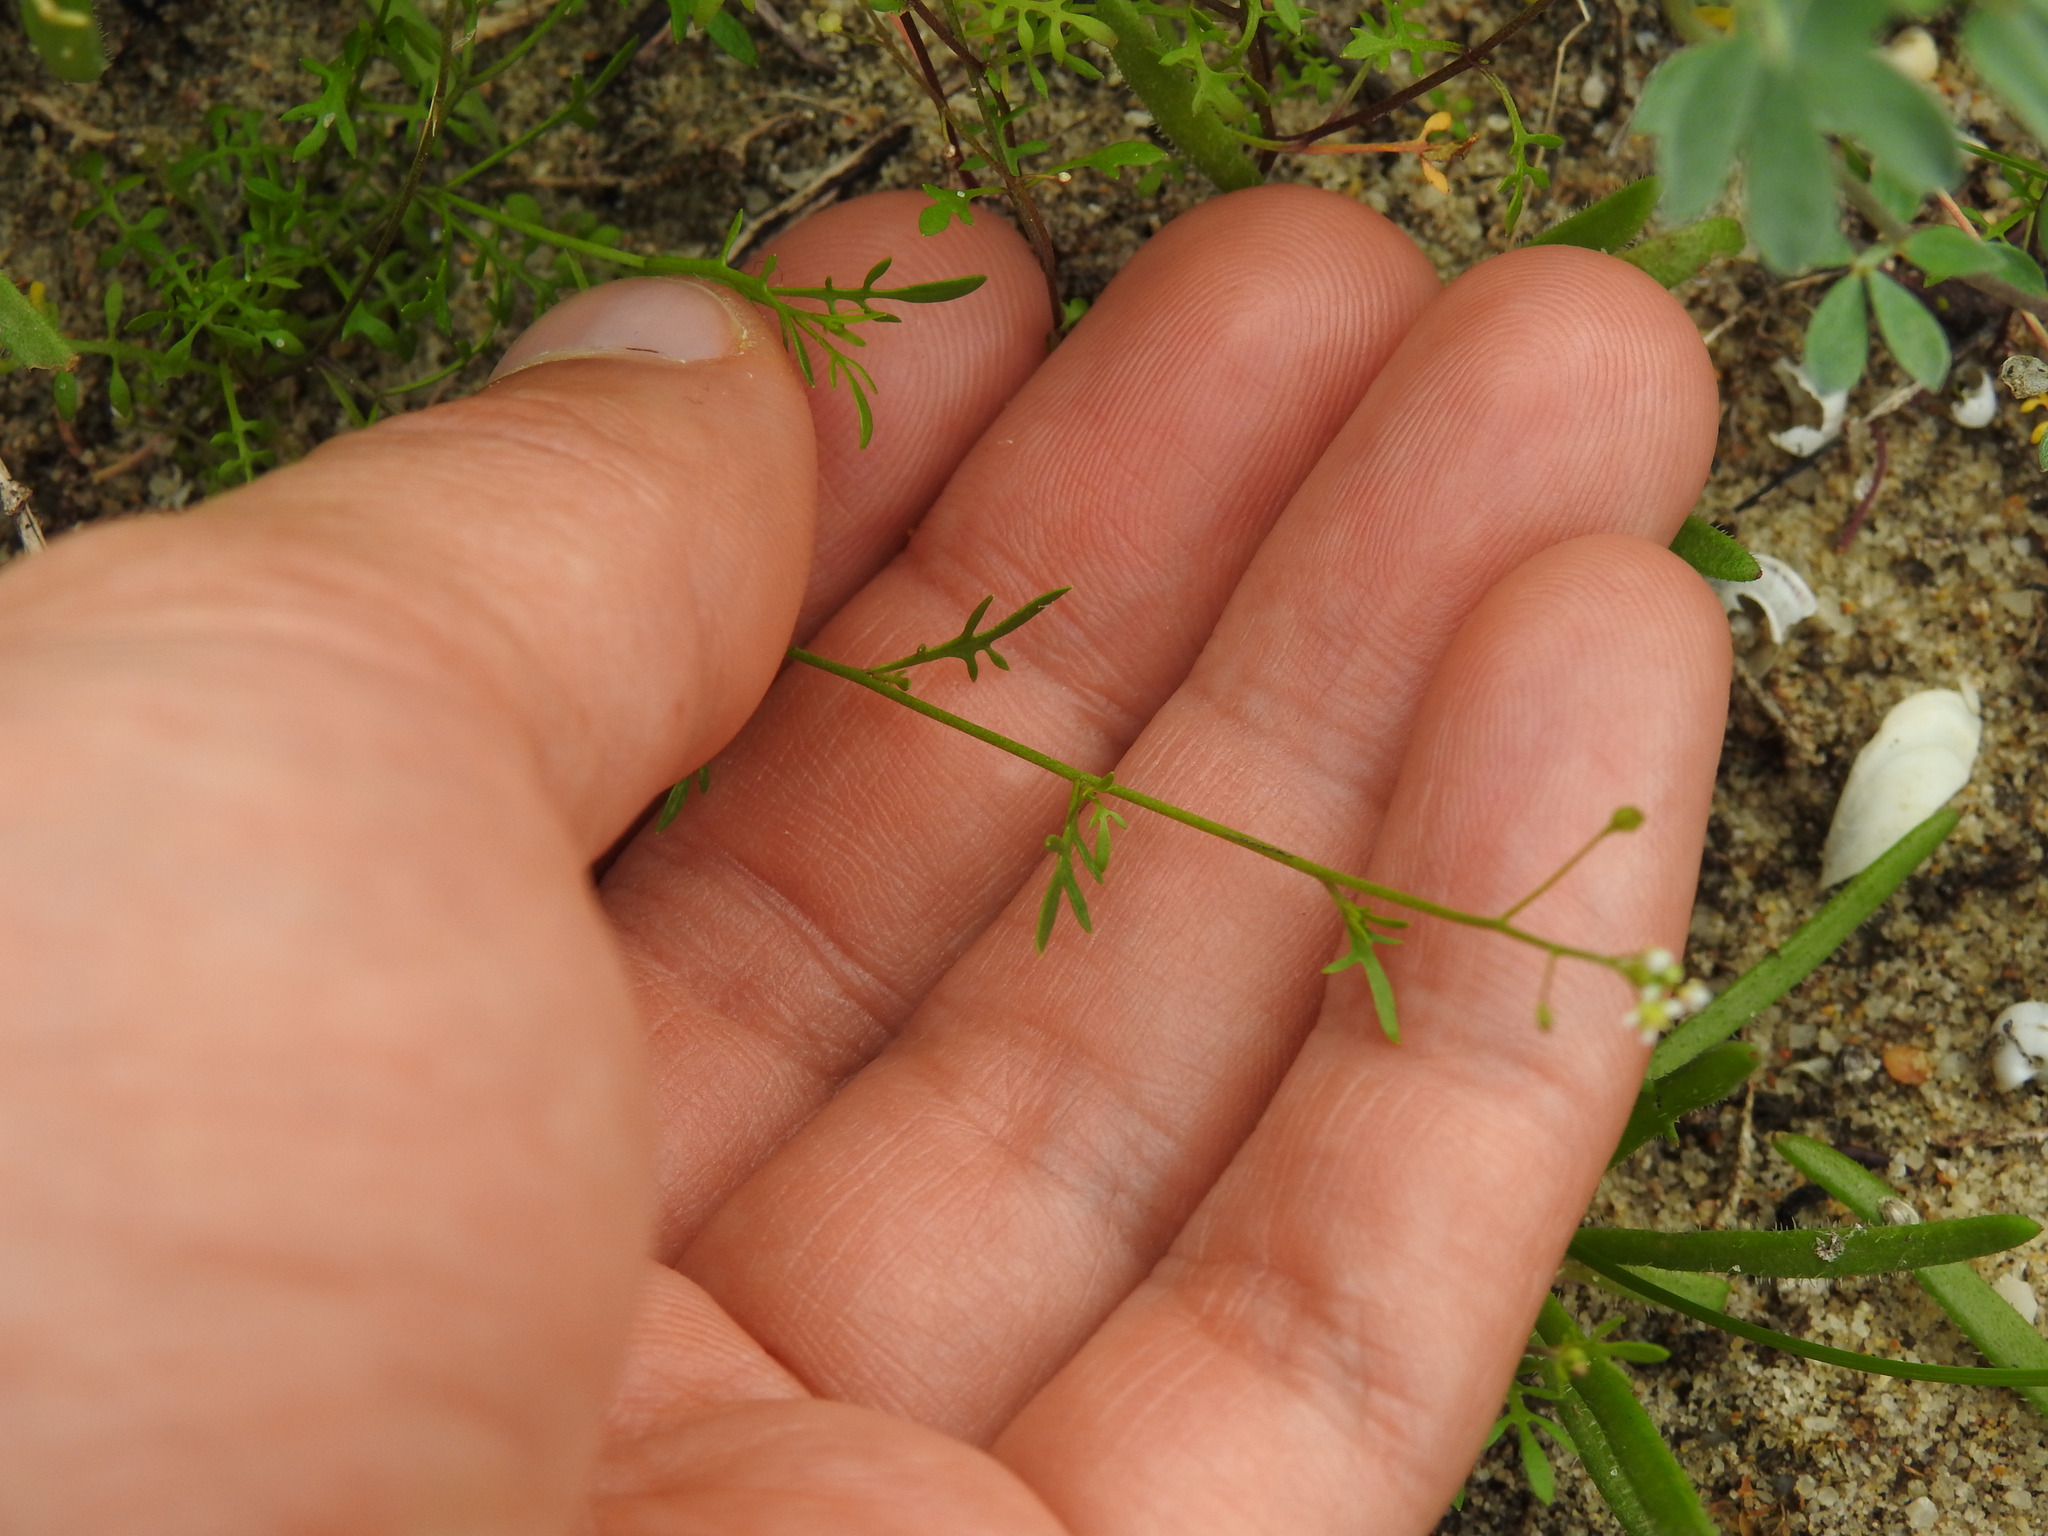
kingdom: Plantae
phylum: Tracheophyta
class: Magnoliopsida
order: Brassicales
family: Brassicaceae
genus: Hornungia
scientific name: Hornungia procumbens
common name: Oval purse
